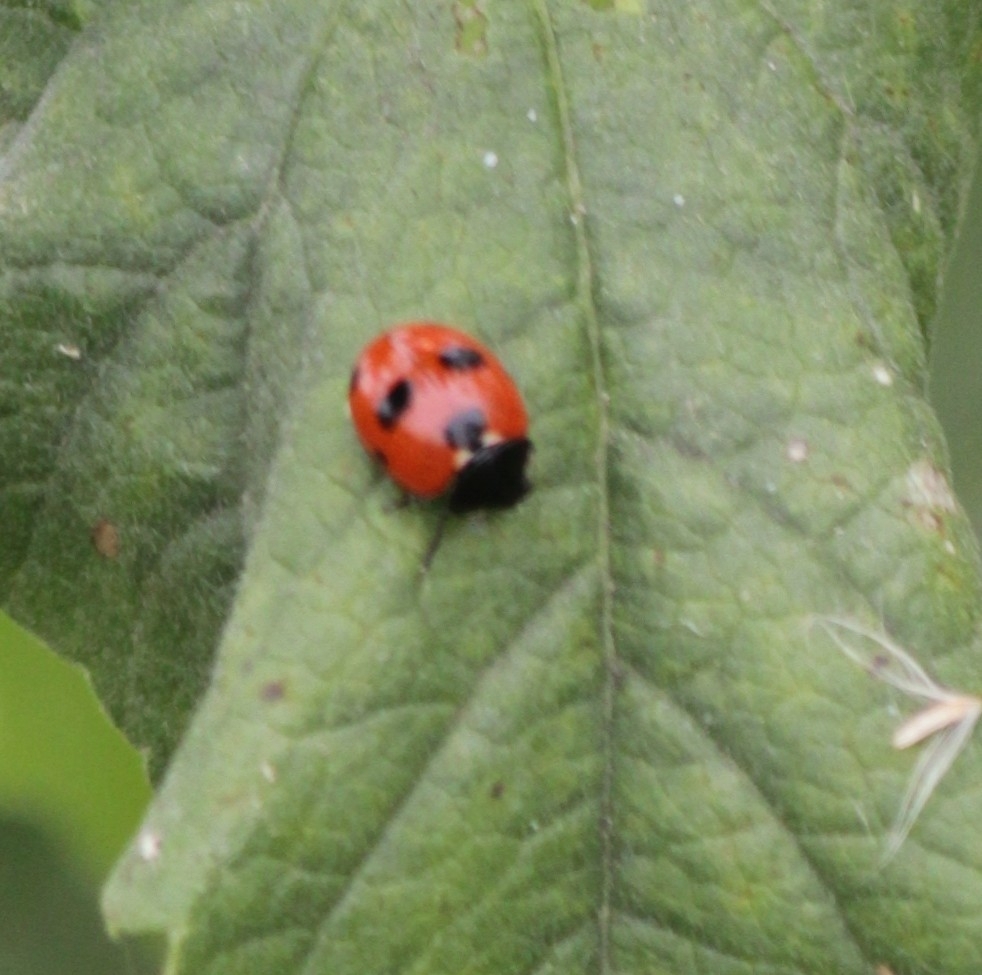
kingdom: Animalia
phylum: Arthropoda
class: Insecta
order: Coleoptera
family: Coccinellidae
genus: Coccinella
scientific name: Coccinella septempunctata
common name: Sevenspotted lady beetle
